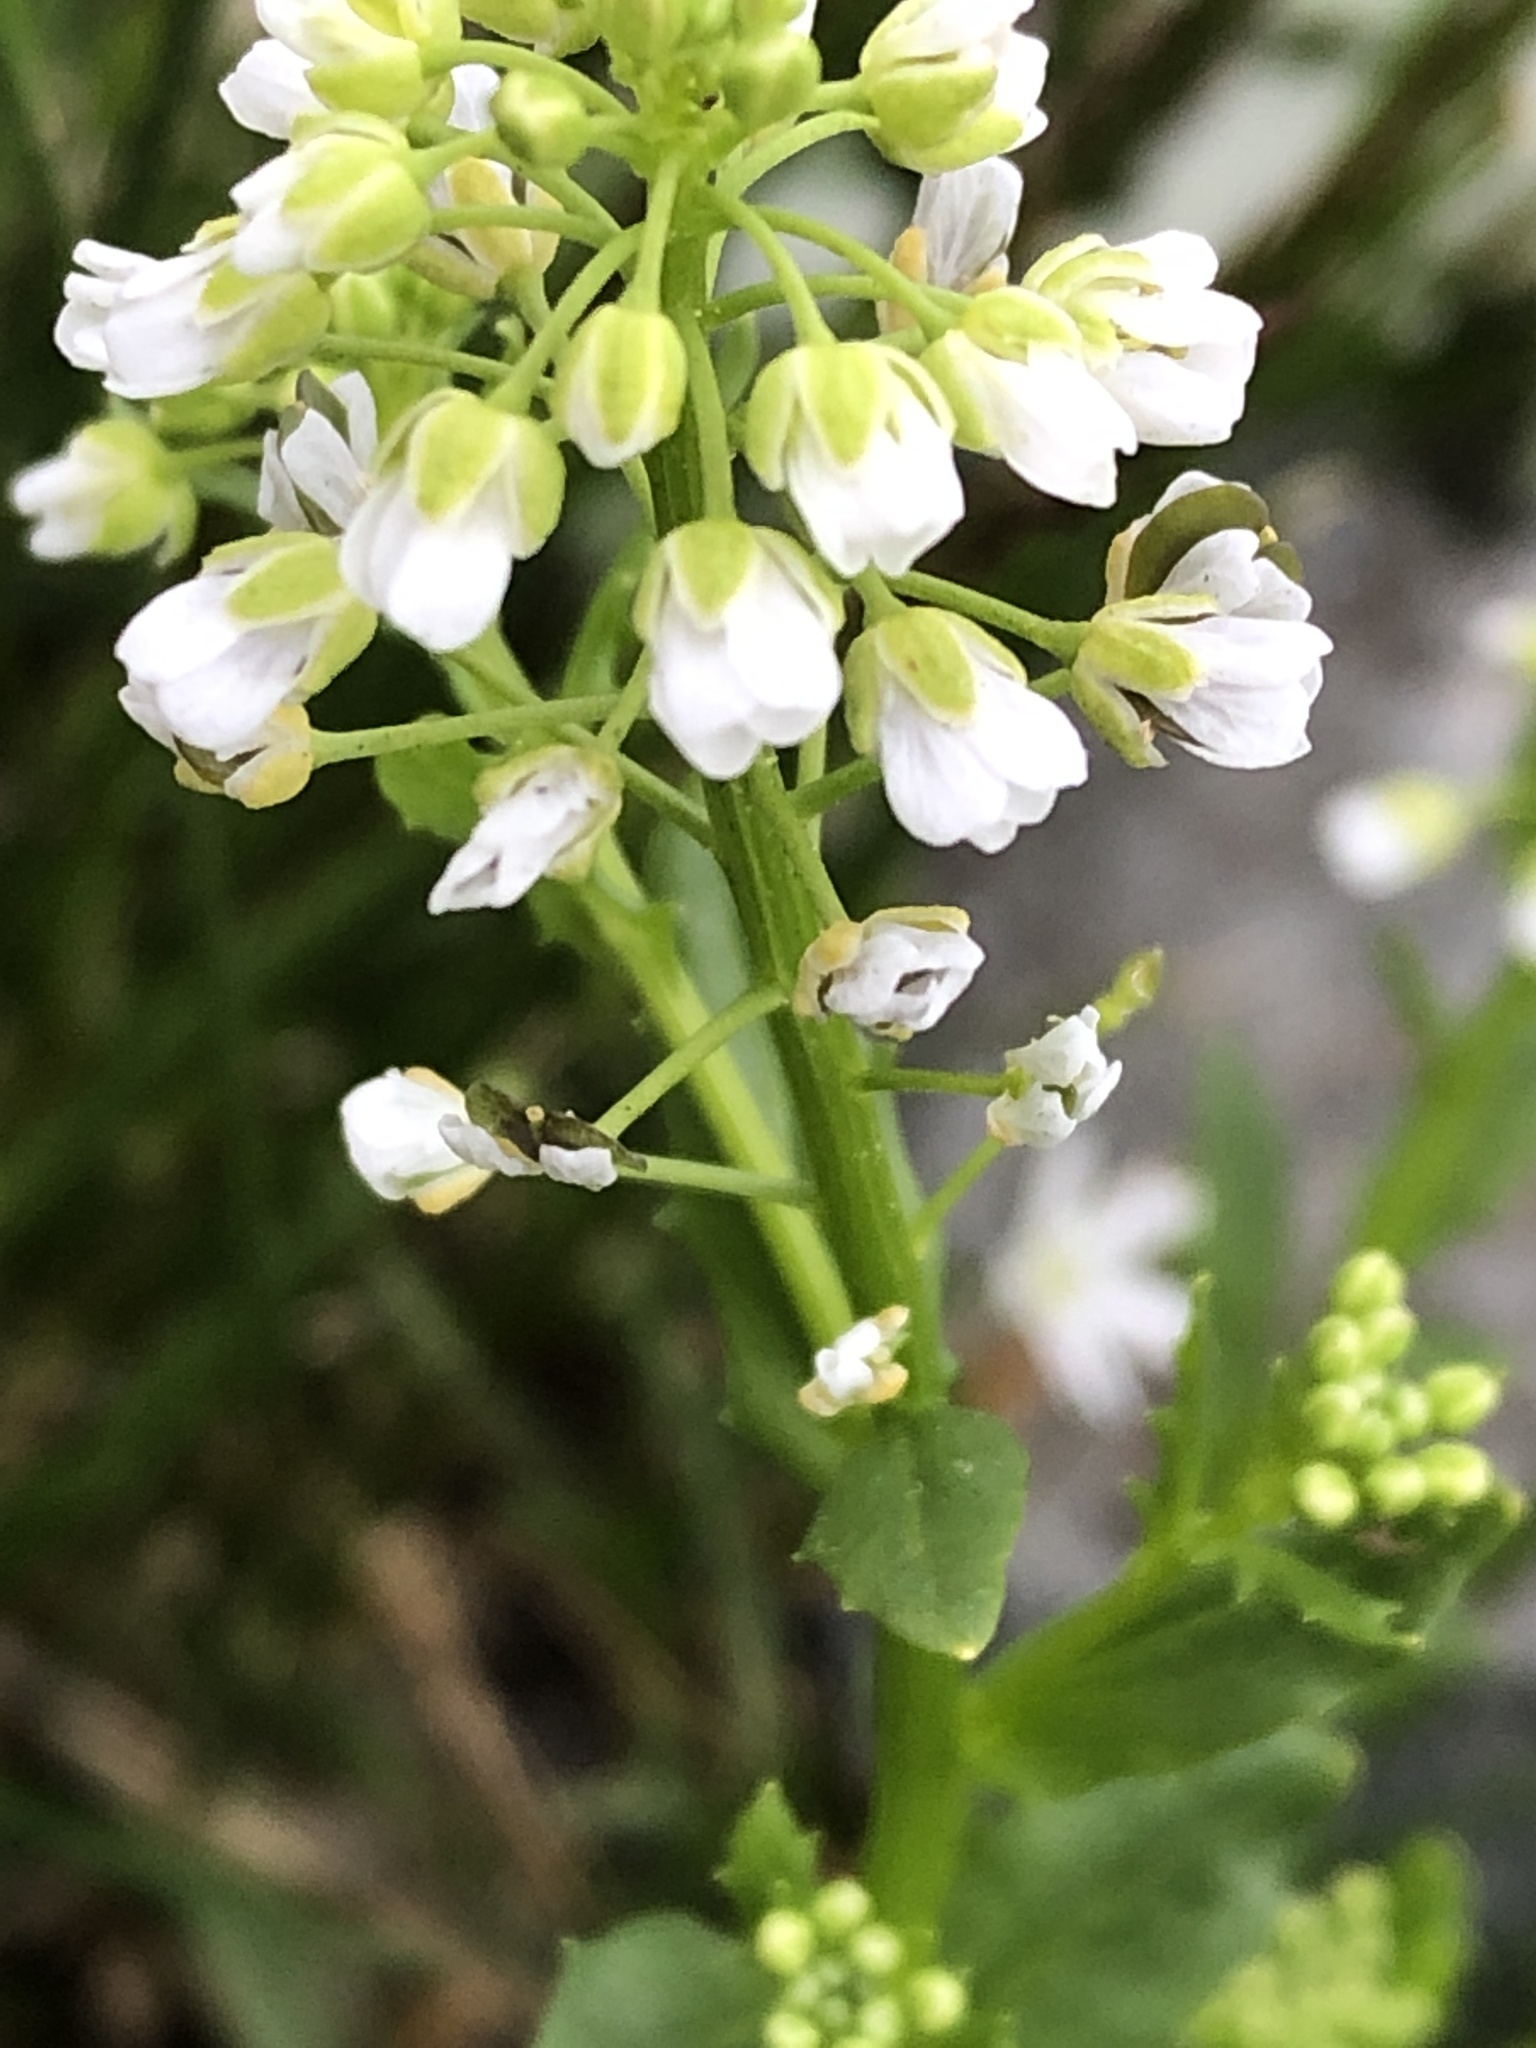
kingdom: Plantae
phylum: Tracheophyta
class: Magnoliopsida
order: Brassicales
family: Brassicaceae
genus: Thlaspi
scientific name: Thlaspi arvense
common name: Field pennycress
